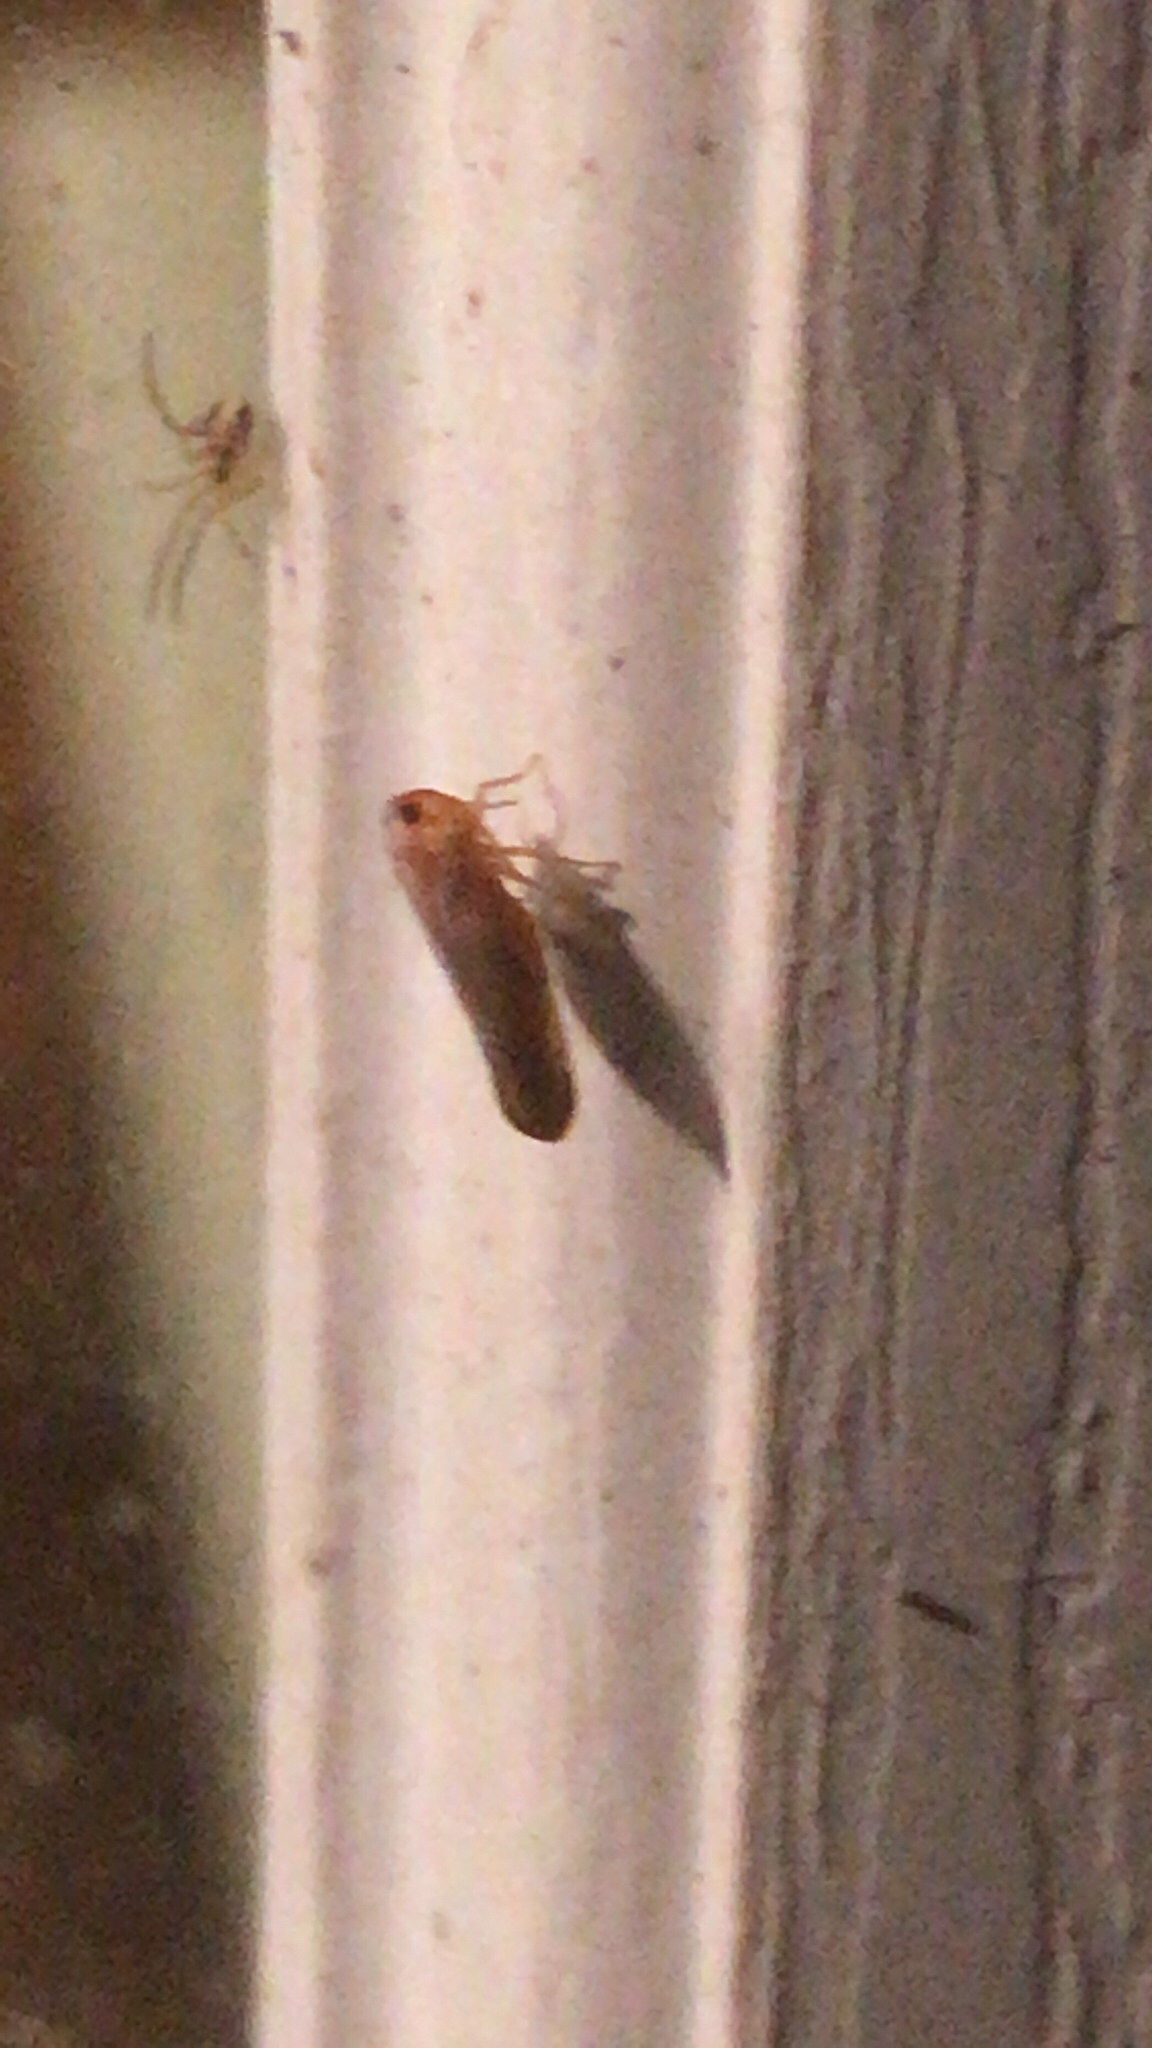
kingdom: Animalia
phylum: Arthropoda
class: Insecta
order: Hemiptera
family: Derbidae
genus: Omolicna
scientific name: Omolicna uhleri
